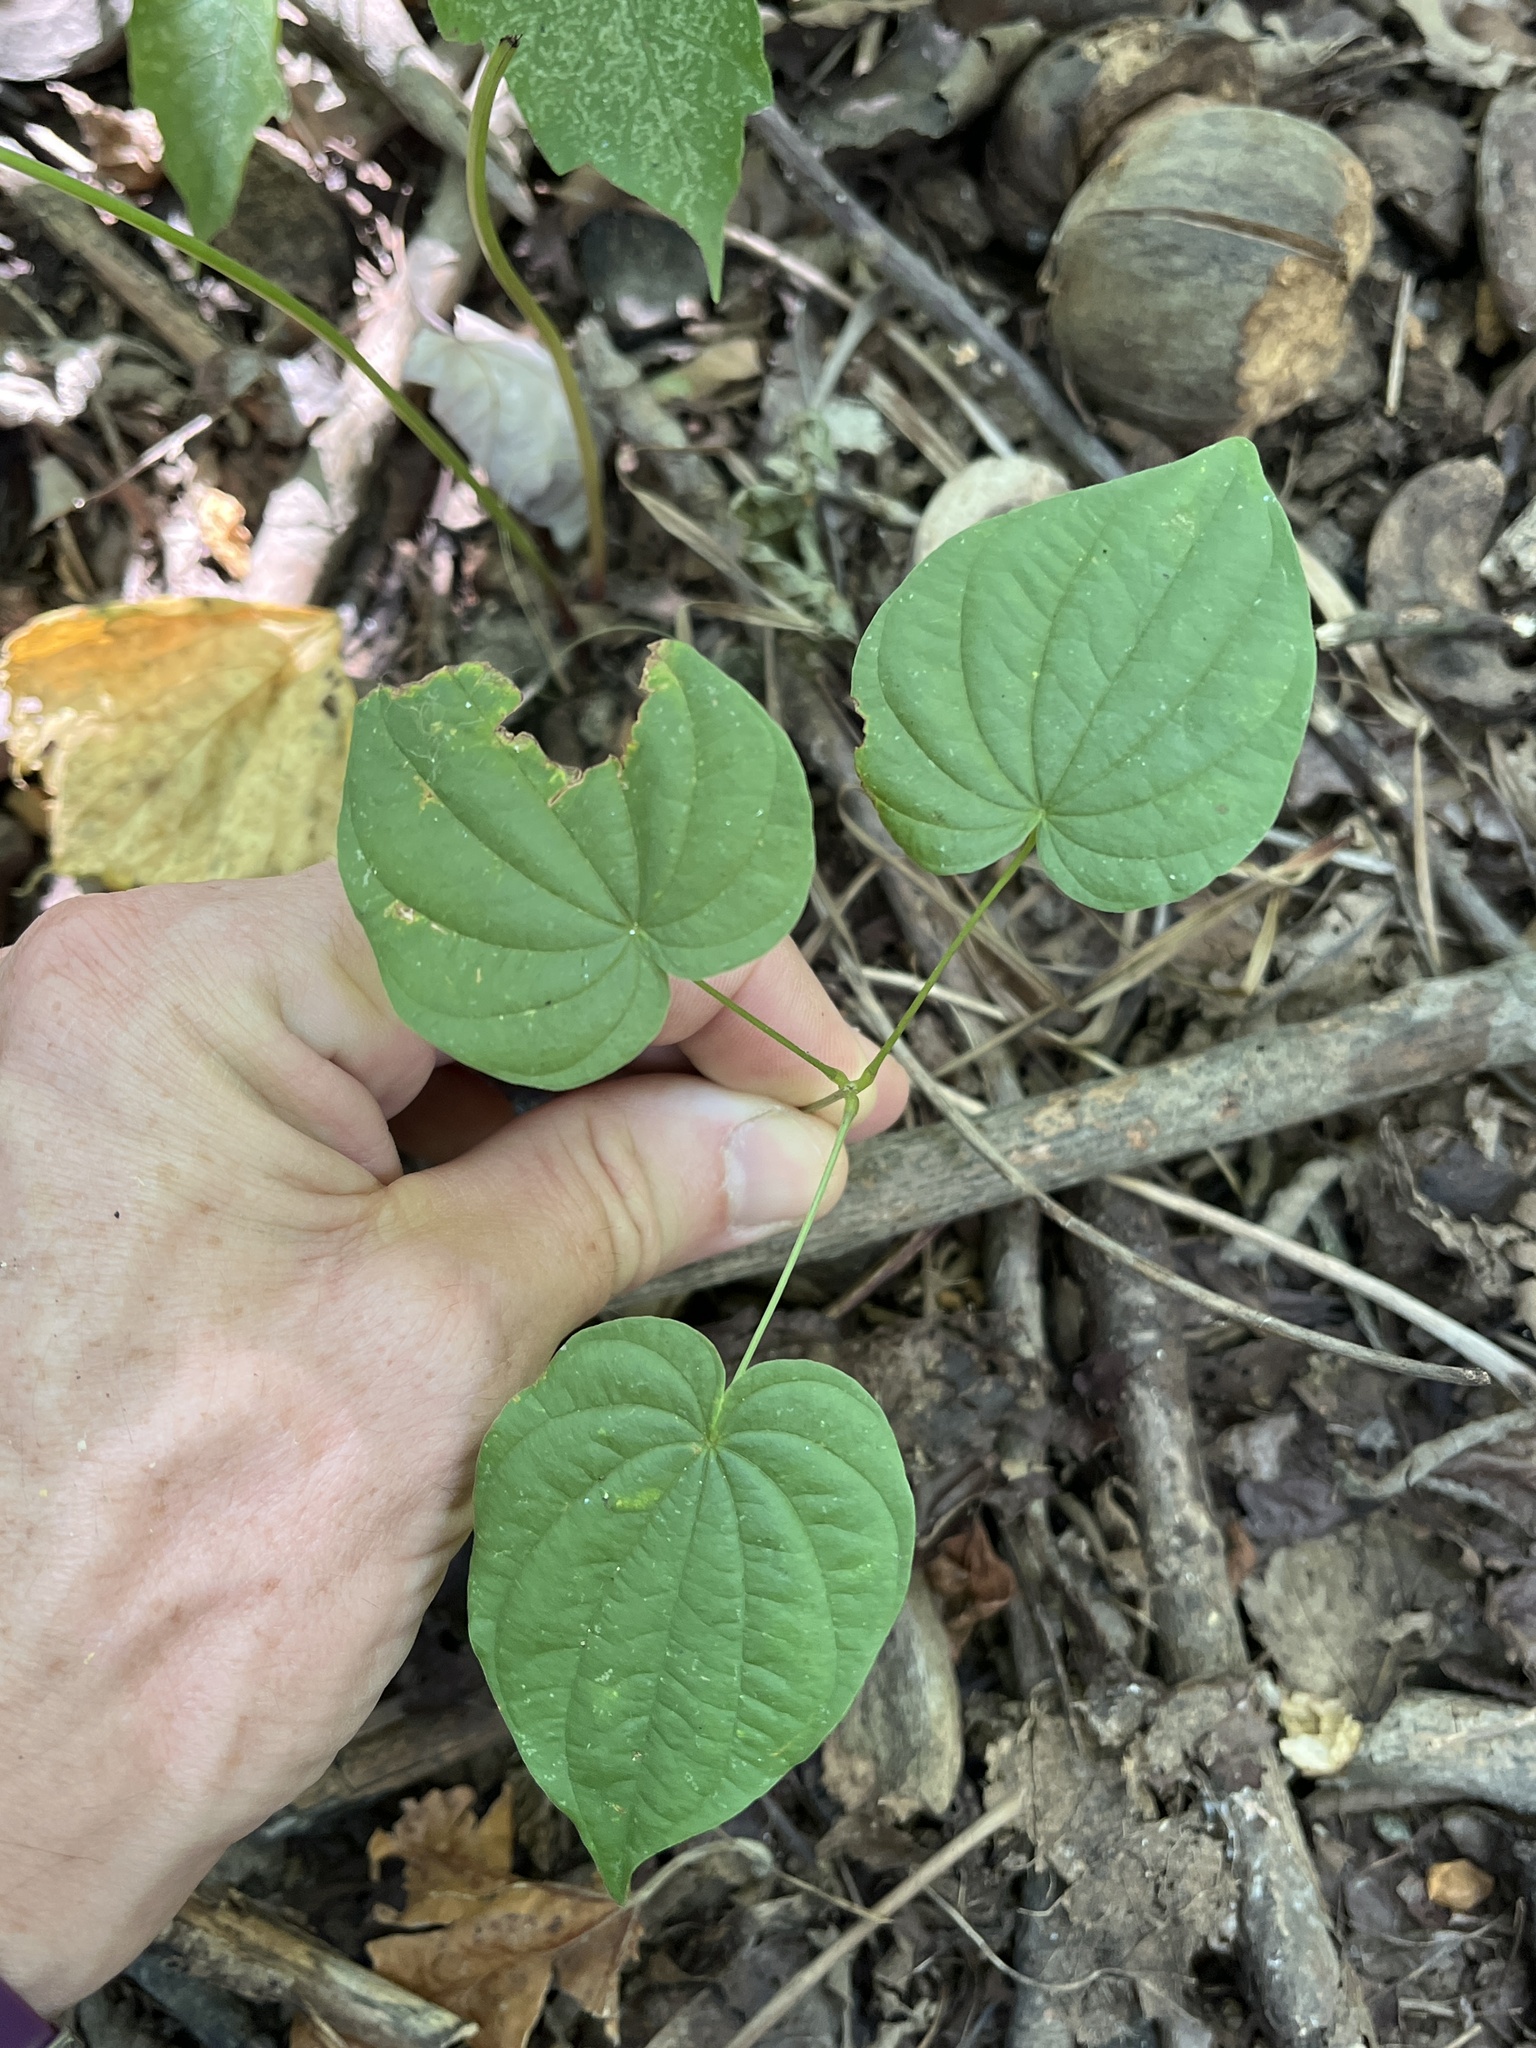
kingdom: Plantae
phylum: Tracheophyta
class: Liliopsida
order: Dioscoreales
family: Dioscoreaceae
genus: Dioscorea
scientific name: Dioscorea villosa
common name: Wild yam
